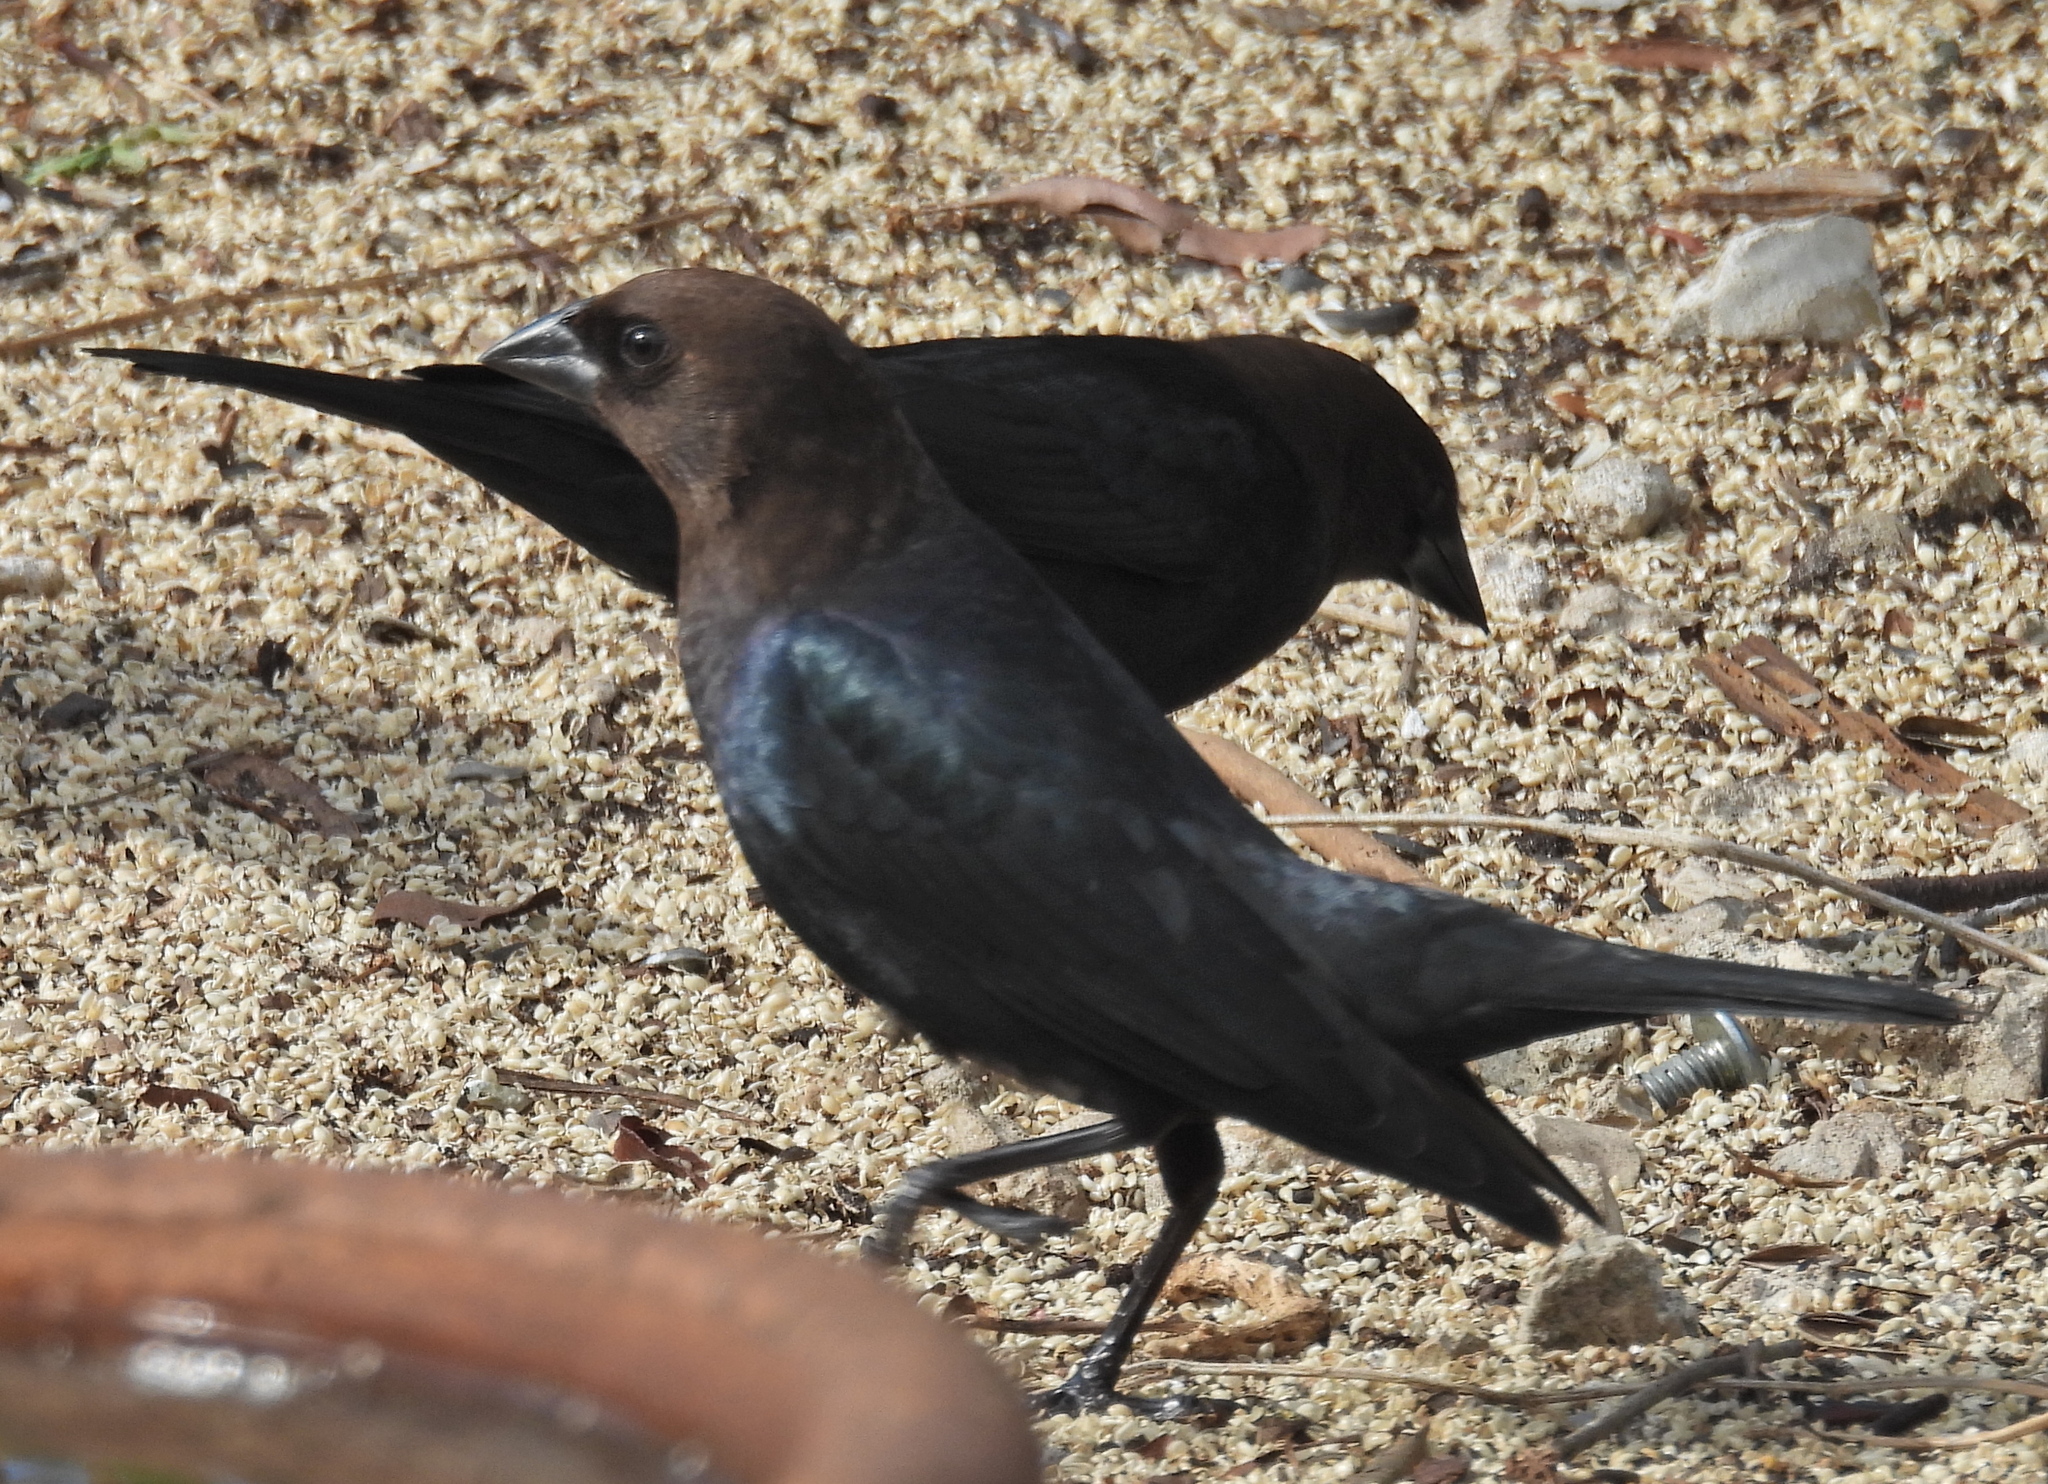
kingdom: Animalia
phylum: Chordata
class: Aves
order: Passeriformes
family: Icteridae
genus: Molothrus
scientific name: Molothrus ater
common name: Brown-headed cowbird
